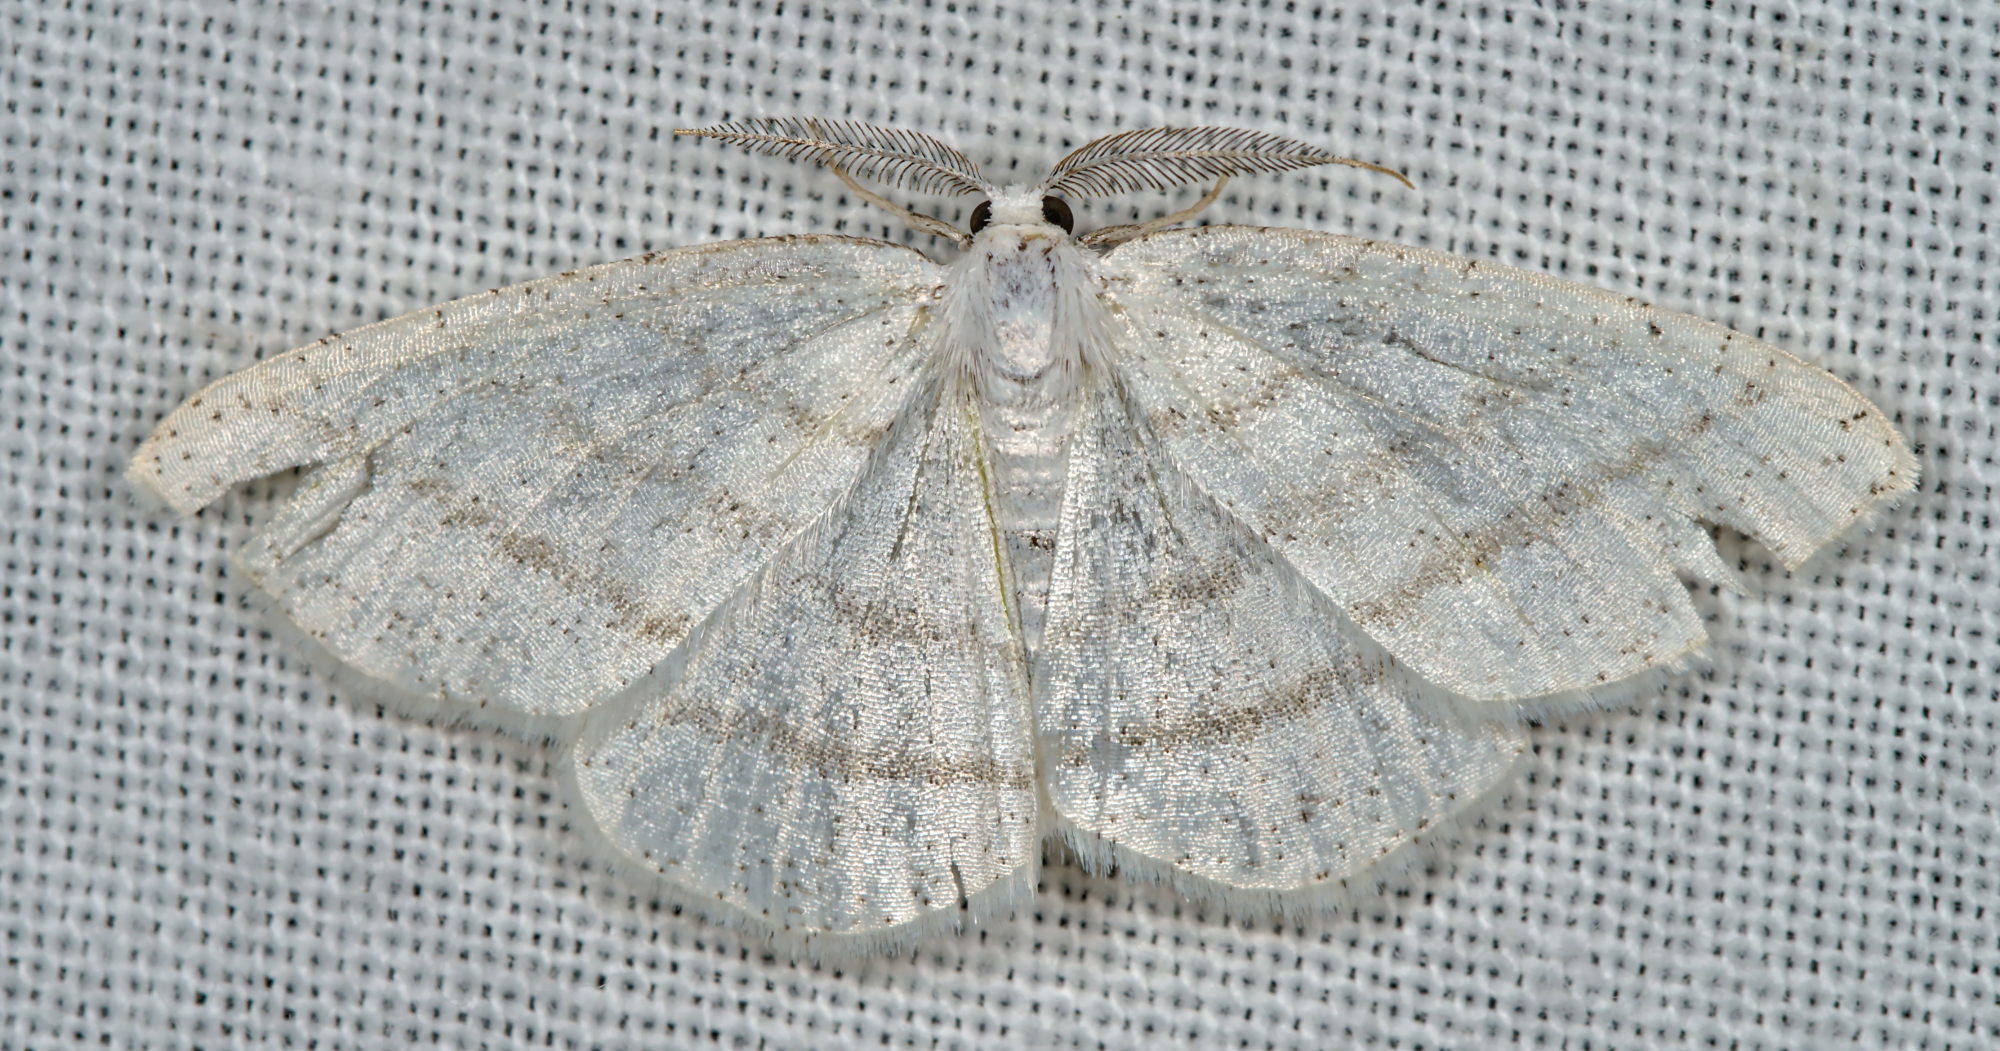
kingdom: Animalia
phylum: Arthropoda
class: Insecta
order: Lepidoptera
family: Geometridae
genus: Cabera
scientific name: Cabera pusaria
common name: Common white wave
